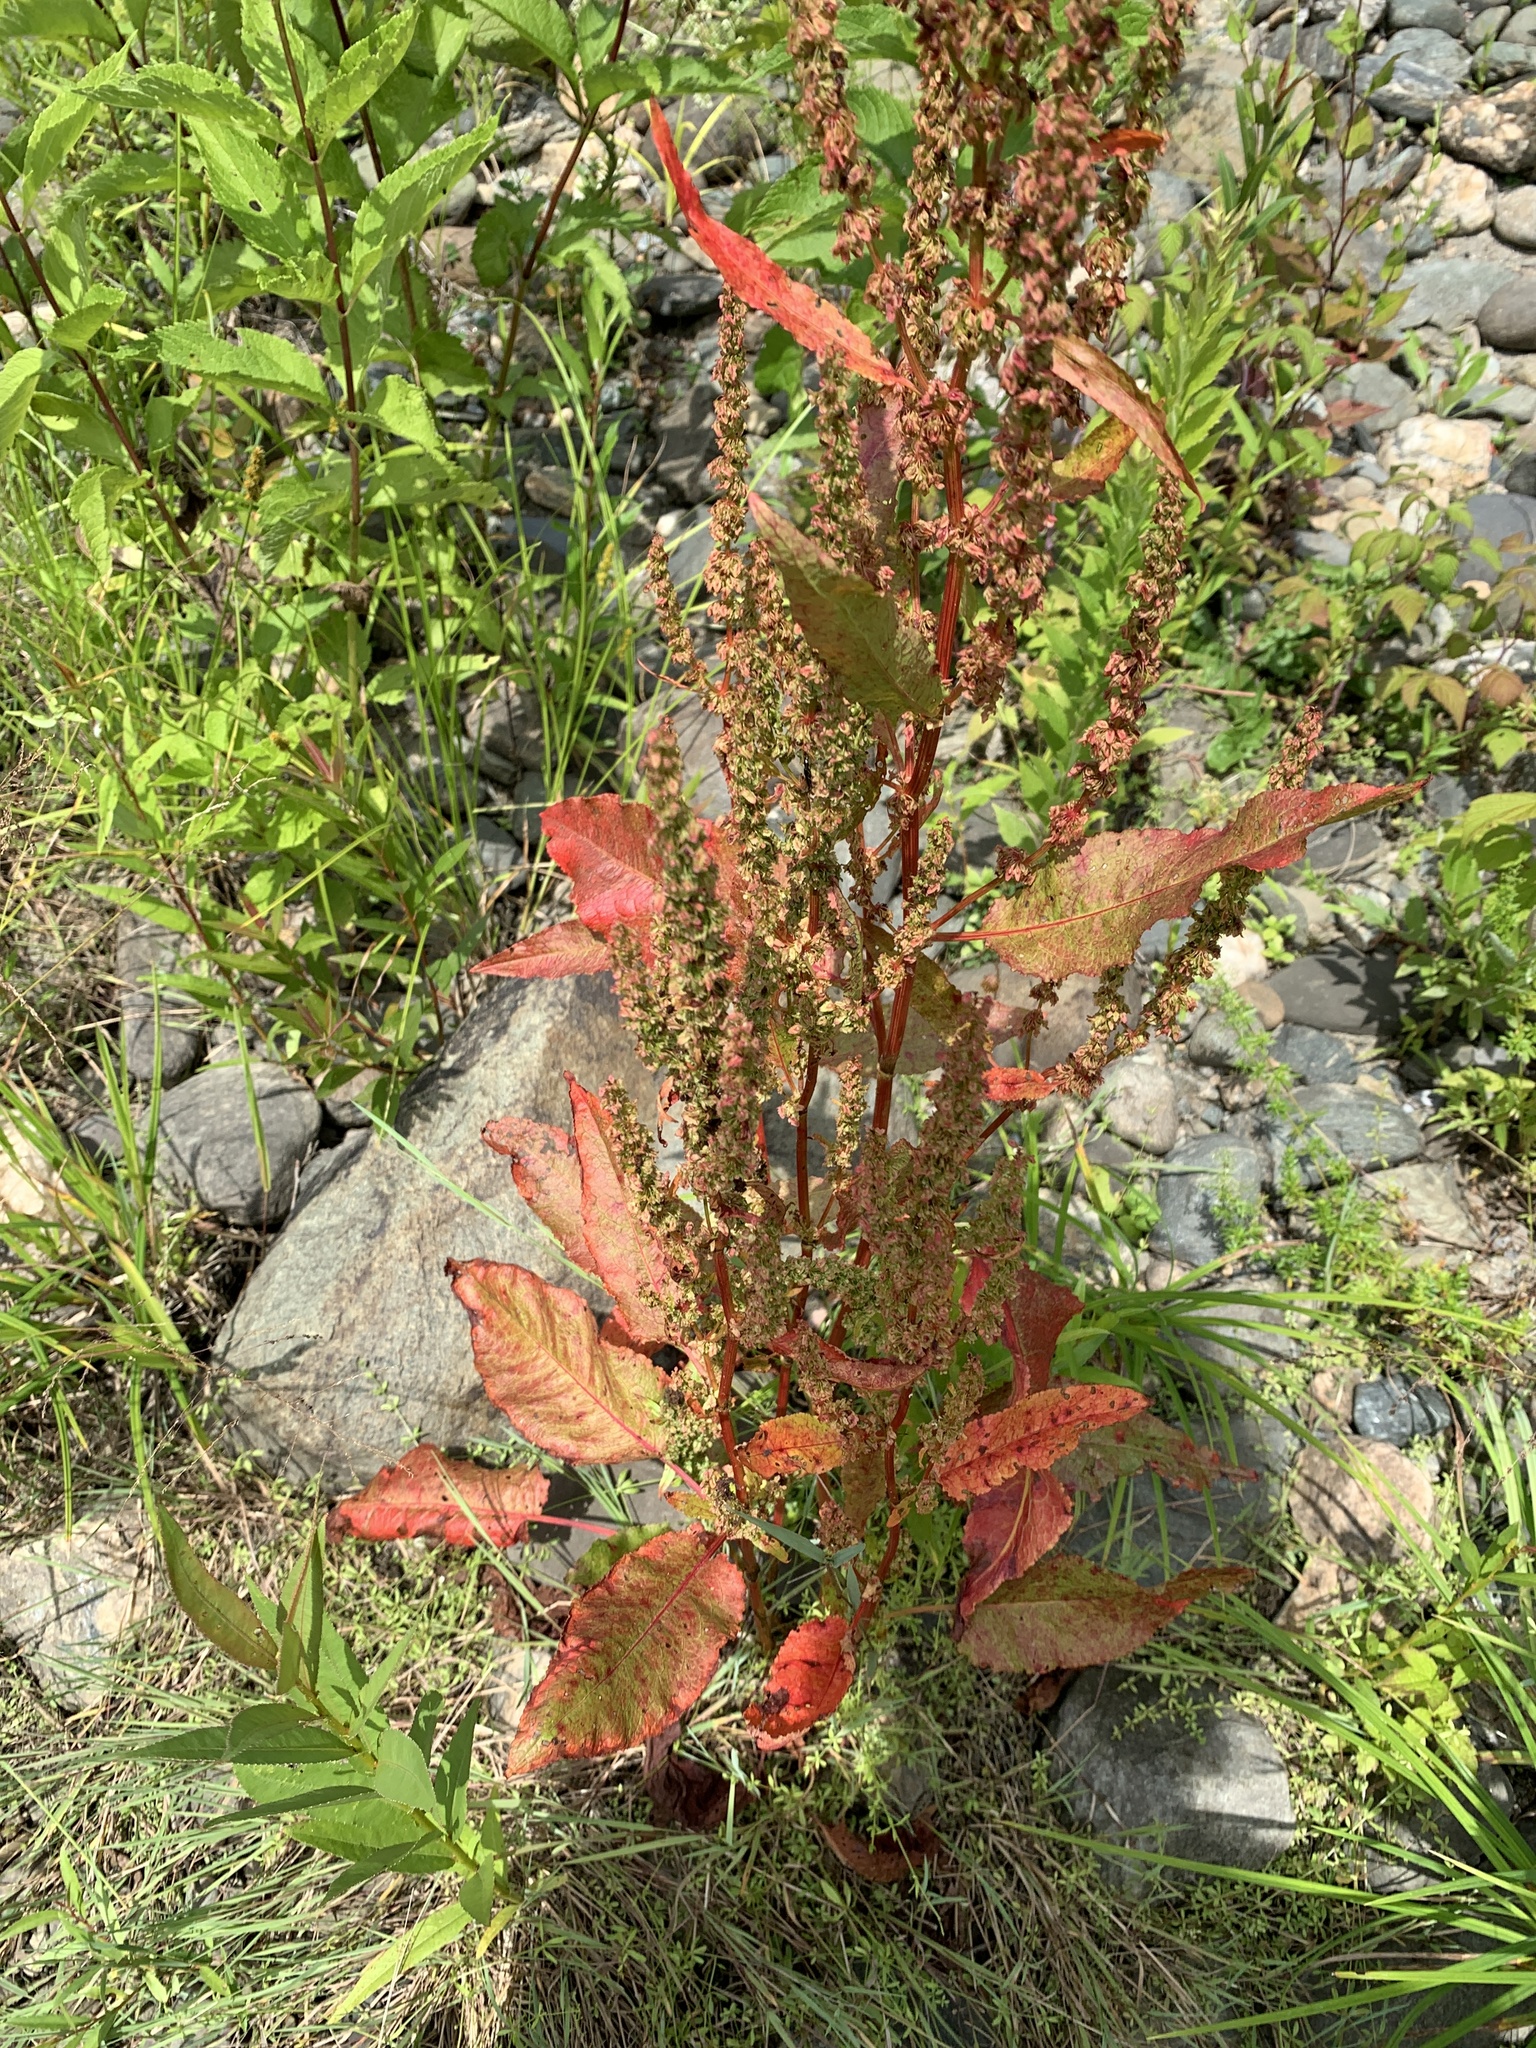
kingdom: Plantae
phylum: Tracheophyta
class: Magnoliopsida
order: Caryophyllales
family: Polygonaceae
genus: Rumex
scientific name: Rumex obtusifolius
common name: Bitter dock
